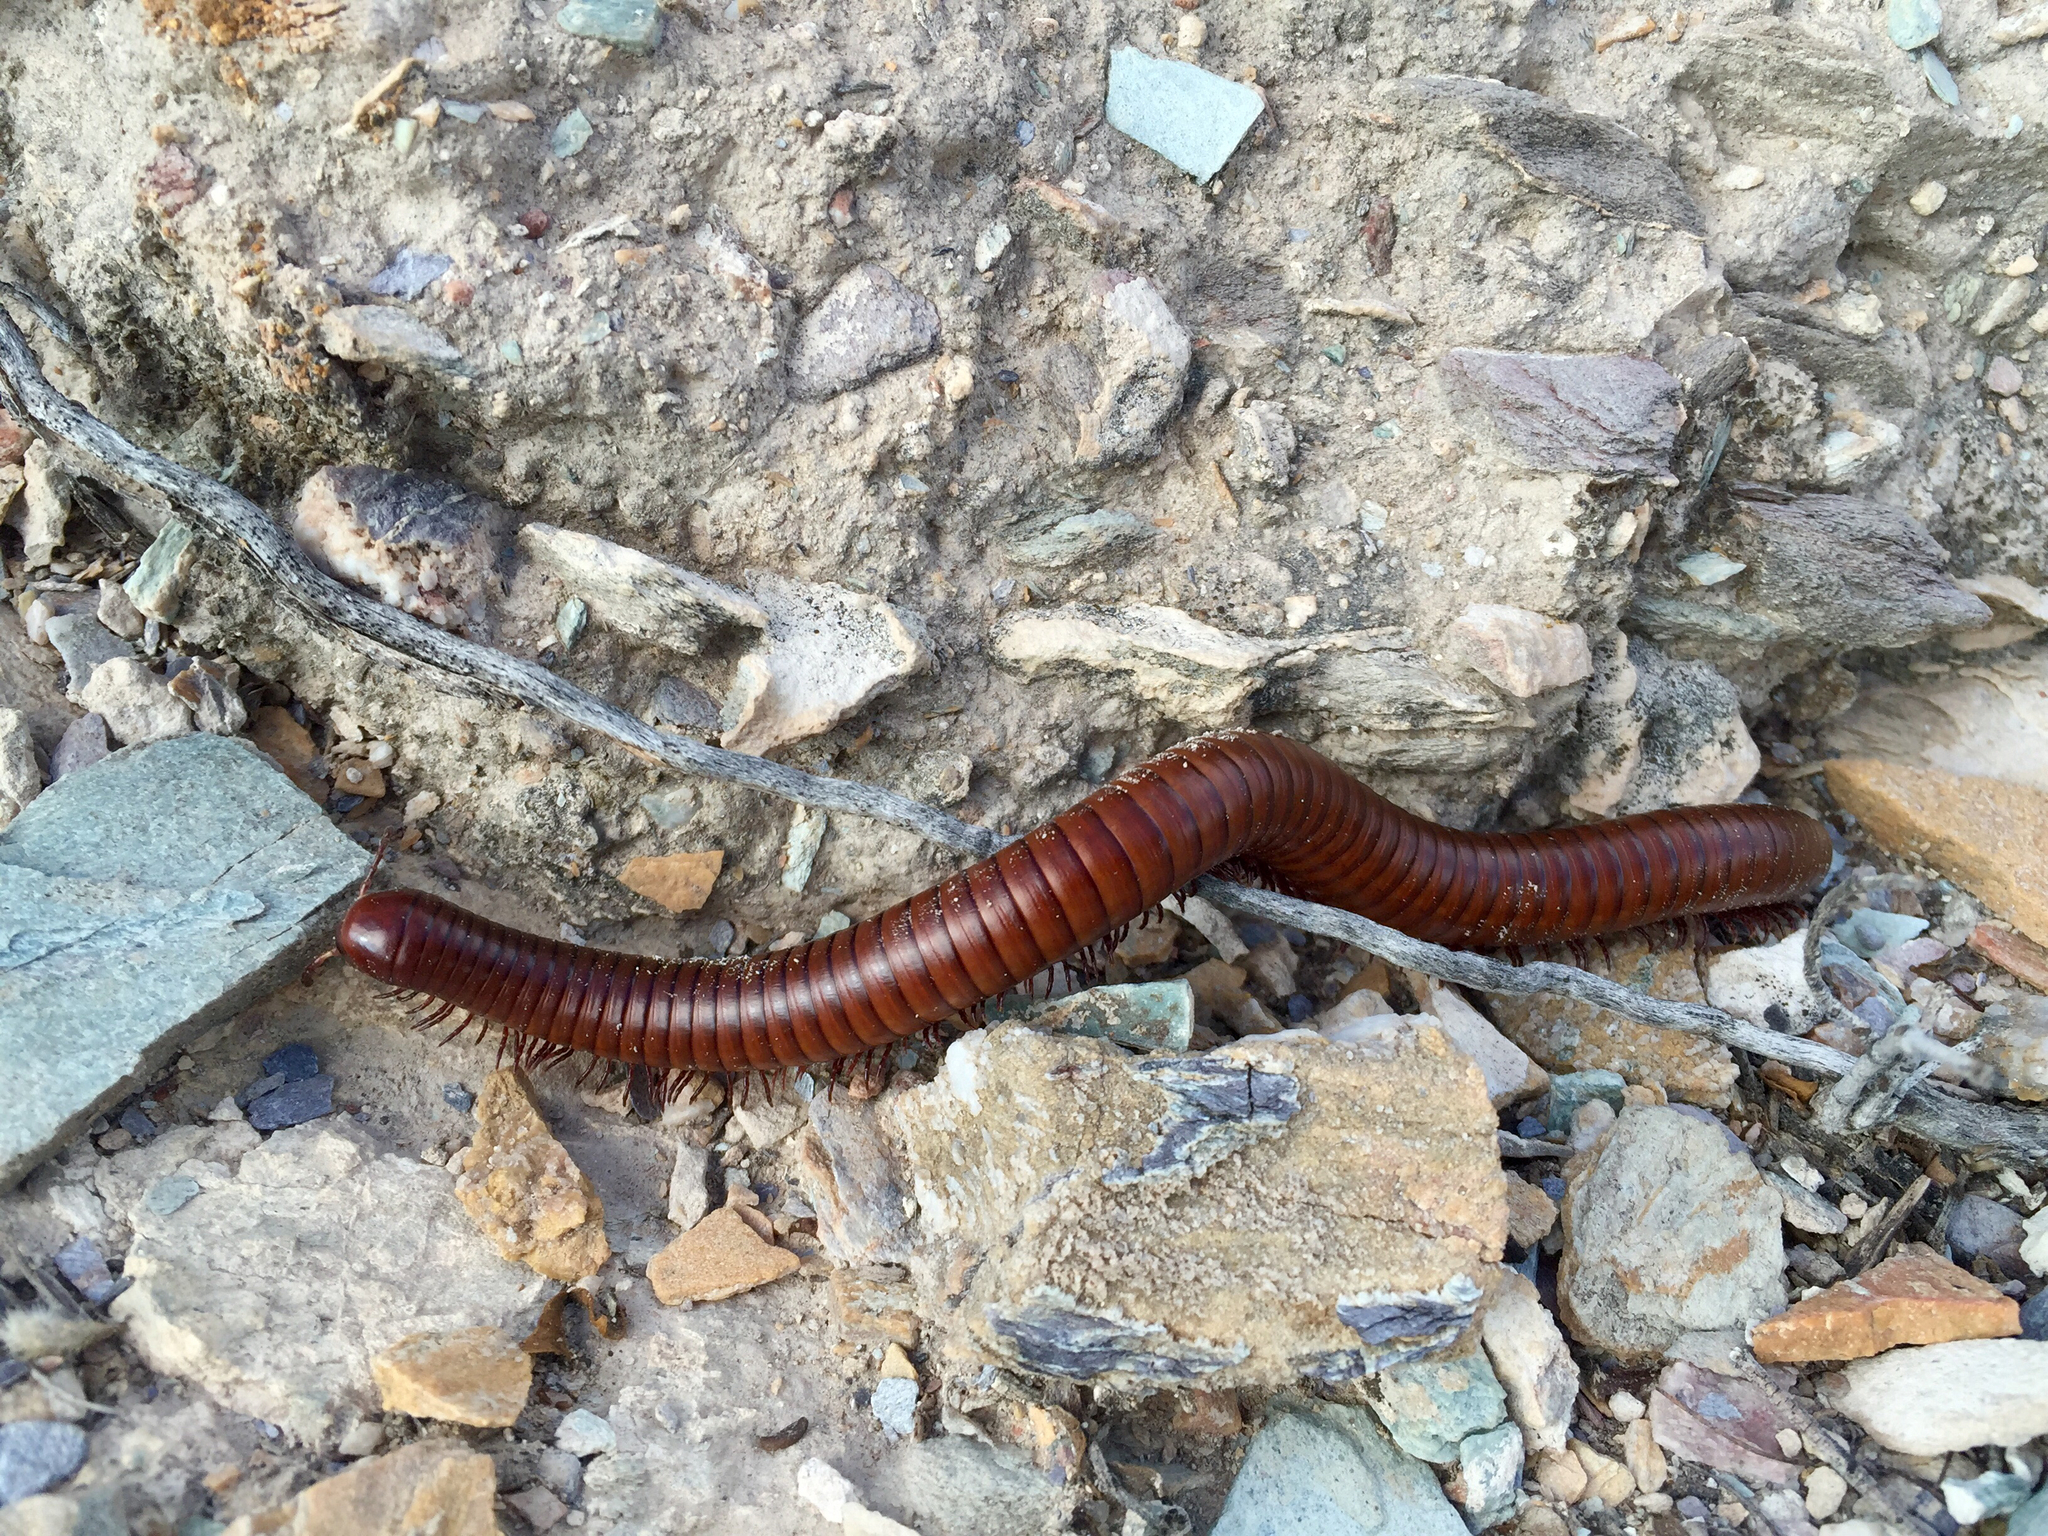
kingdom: Animalia
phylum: Arthropoda
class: Diplopoda
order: Spirostreptida
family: Spirostreptidae
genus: Orthoporus
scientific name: Orthoporus ornatus
